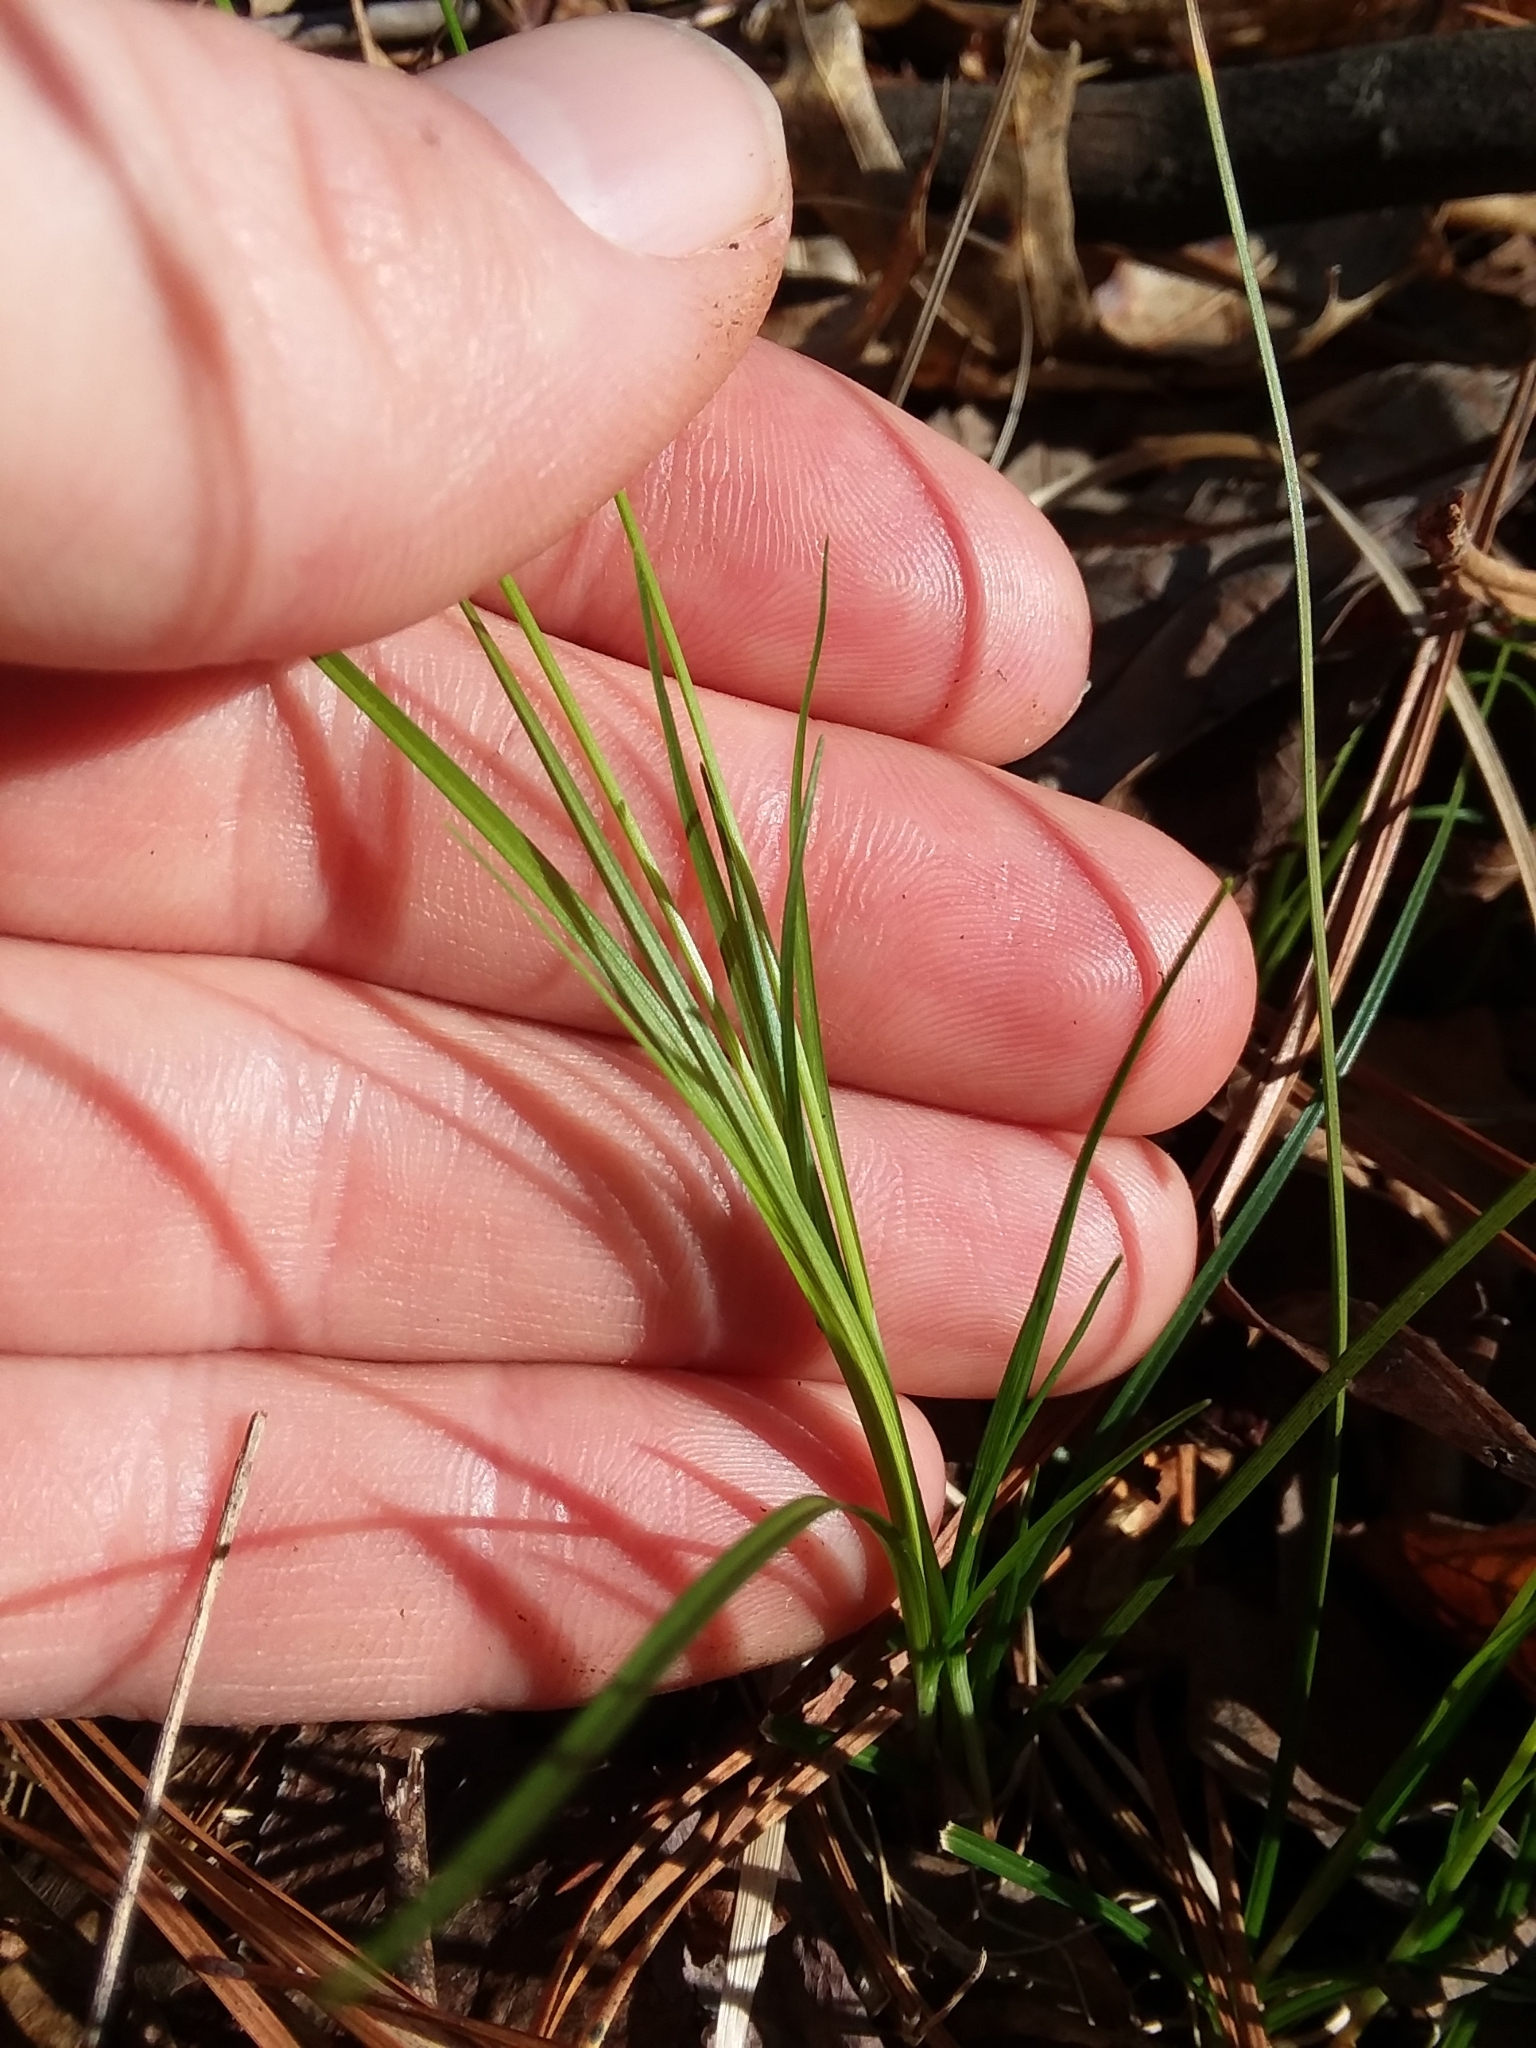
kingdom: Plantae
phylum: Tracheophyta
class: Liliopsida
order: Poales
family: Cyperaceae
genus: Carex
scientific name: Carex albicans
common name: Bellow-beaked sedge
